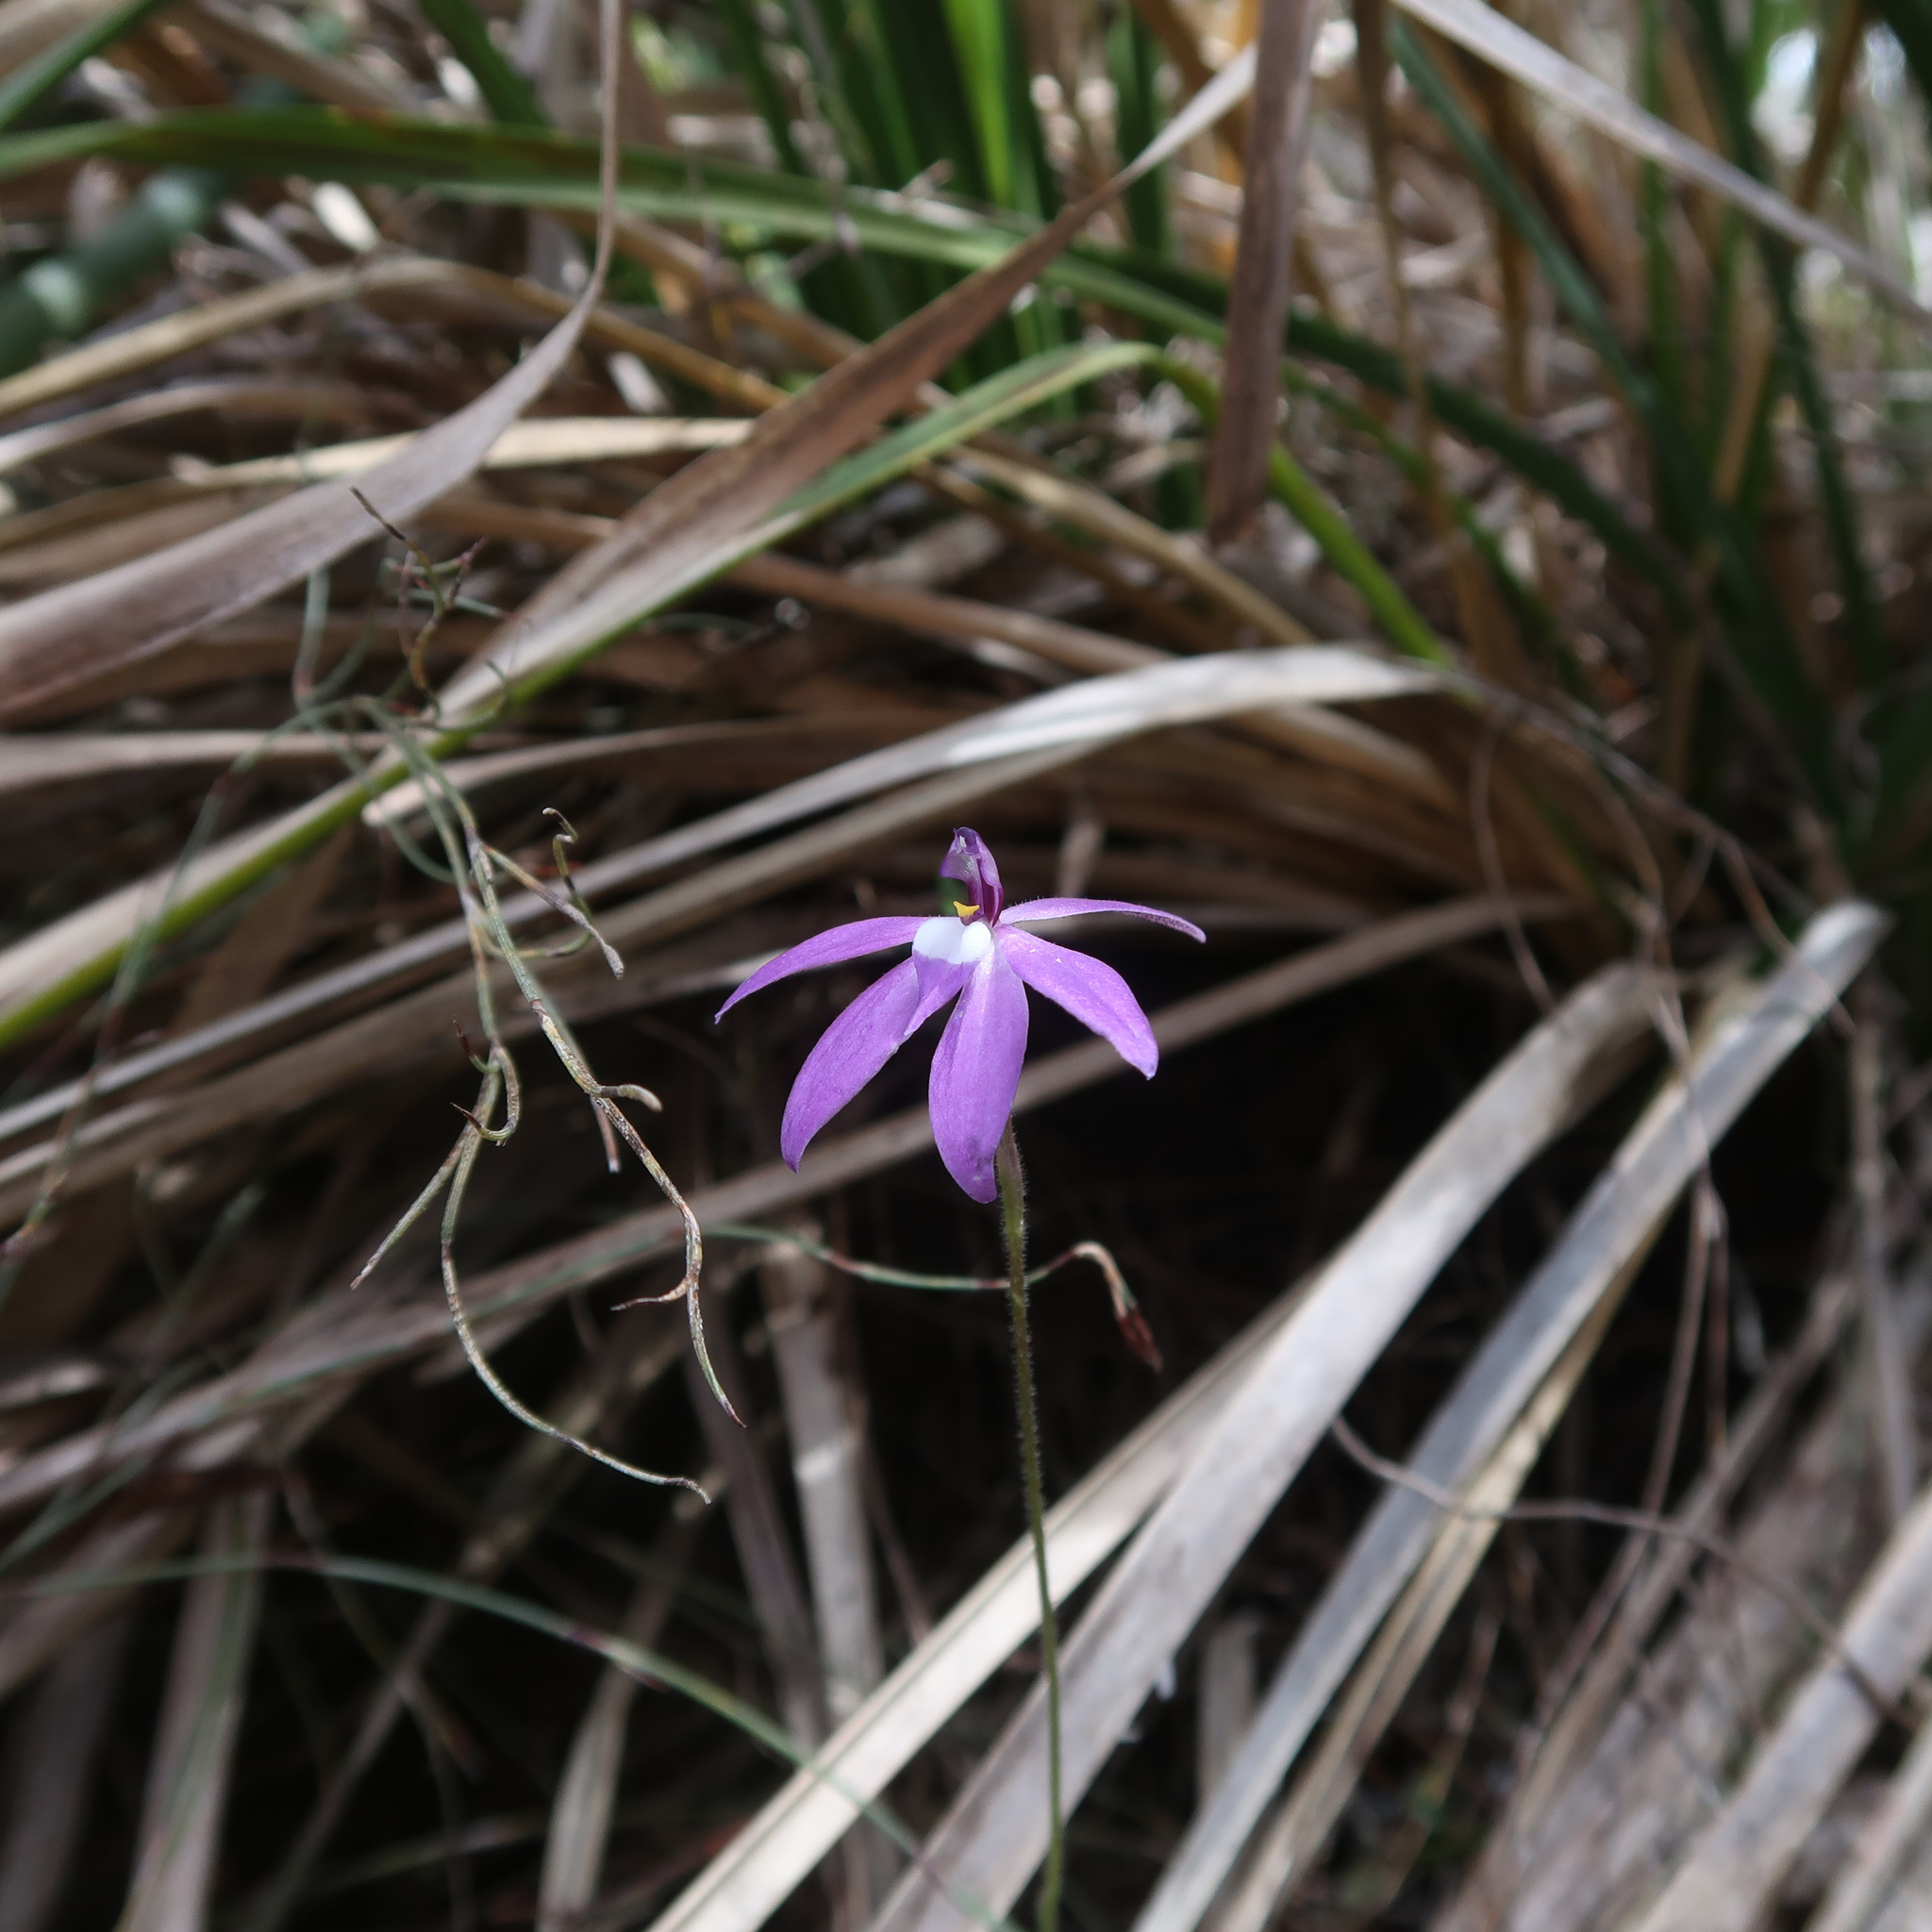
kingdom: Plantae
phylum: Tracheophyta
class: Liliopsida
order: Asparagales
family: Orchidaceae
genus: Caladenia
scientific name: Caladenia major
